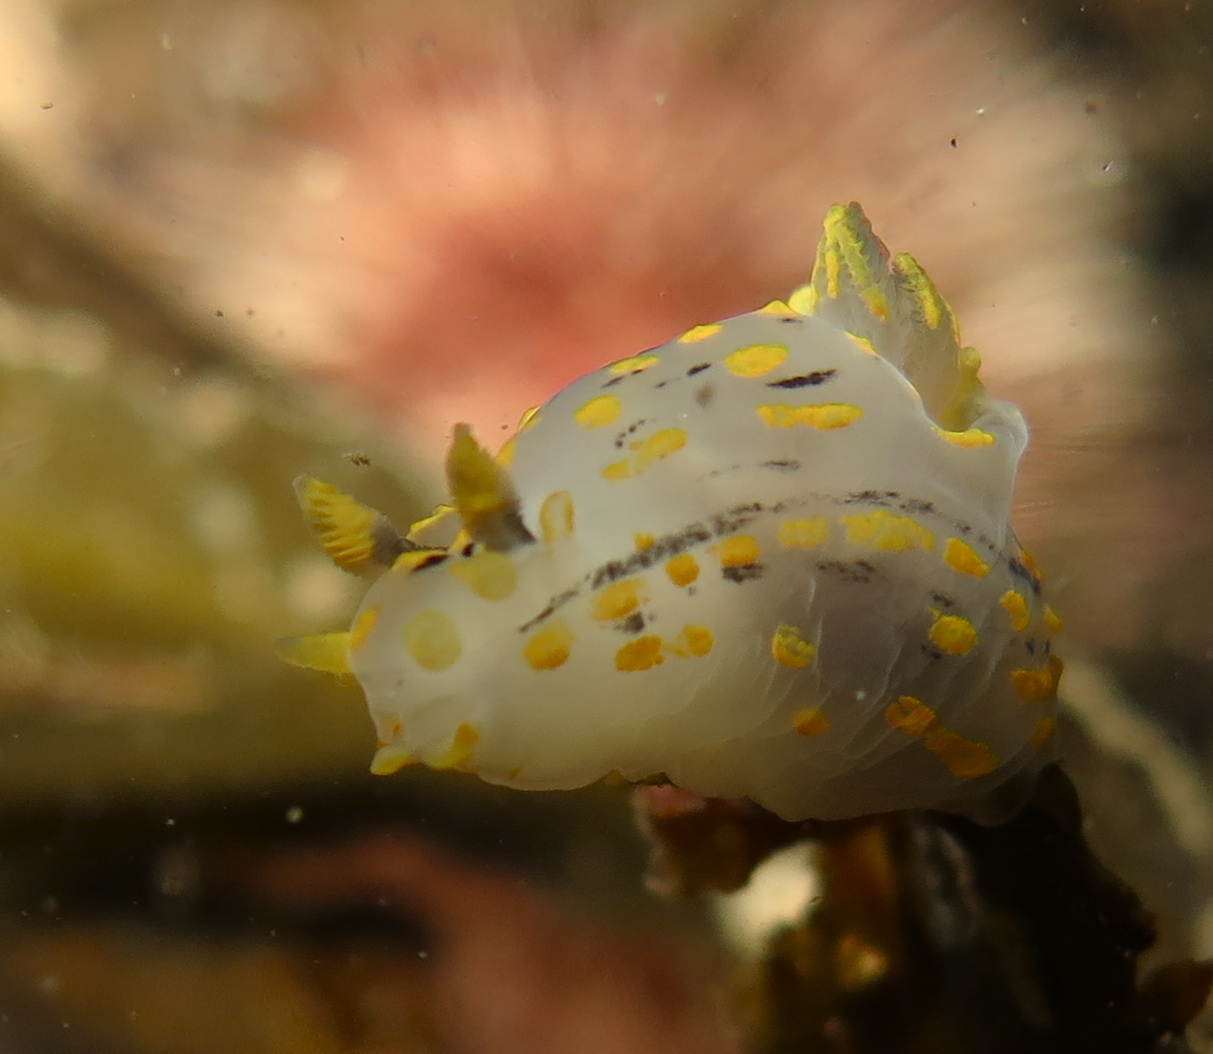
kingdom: Animalia
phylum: Mollusca
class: Gastropoda
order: Nudibranchia
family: Polyceridae
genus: Polycera
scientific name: Polycera quadrilineata
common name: Four-striped polycera
